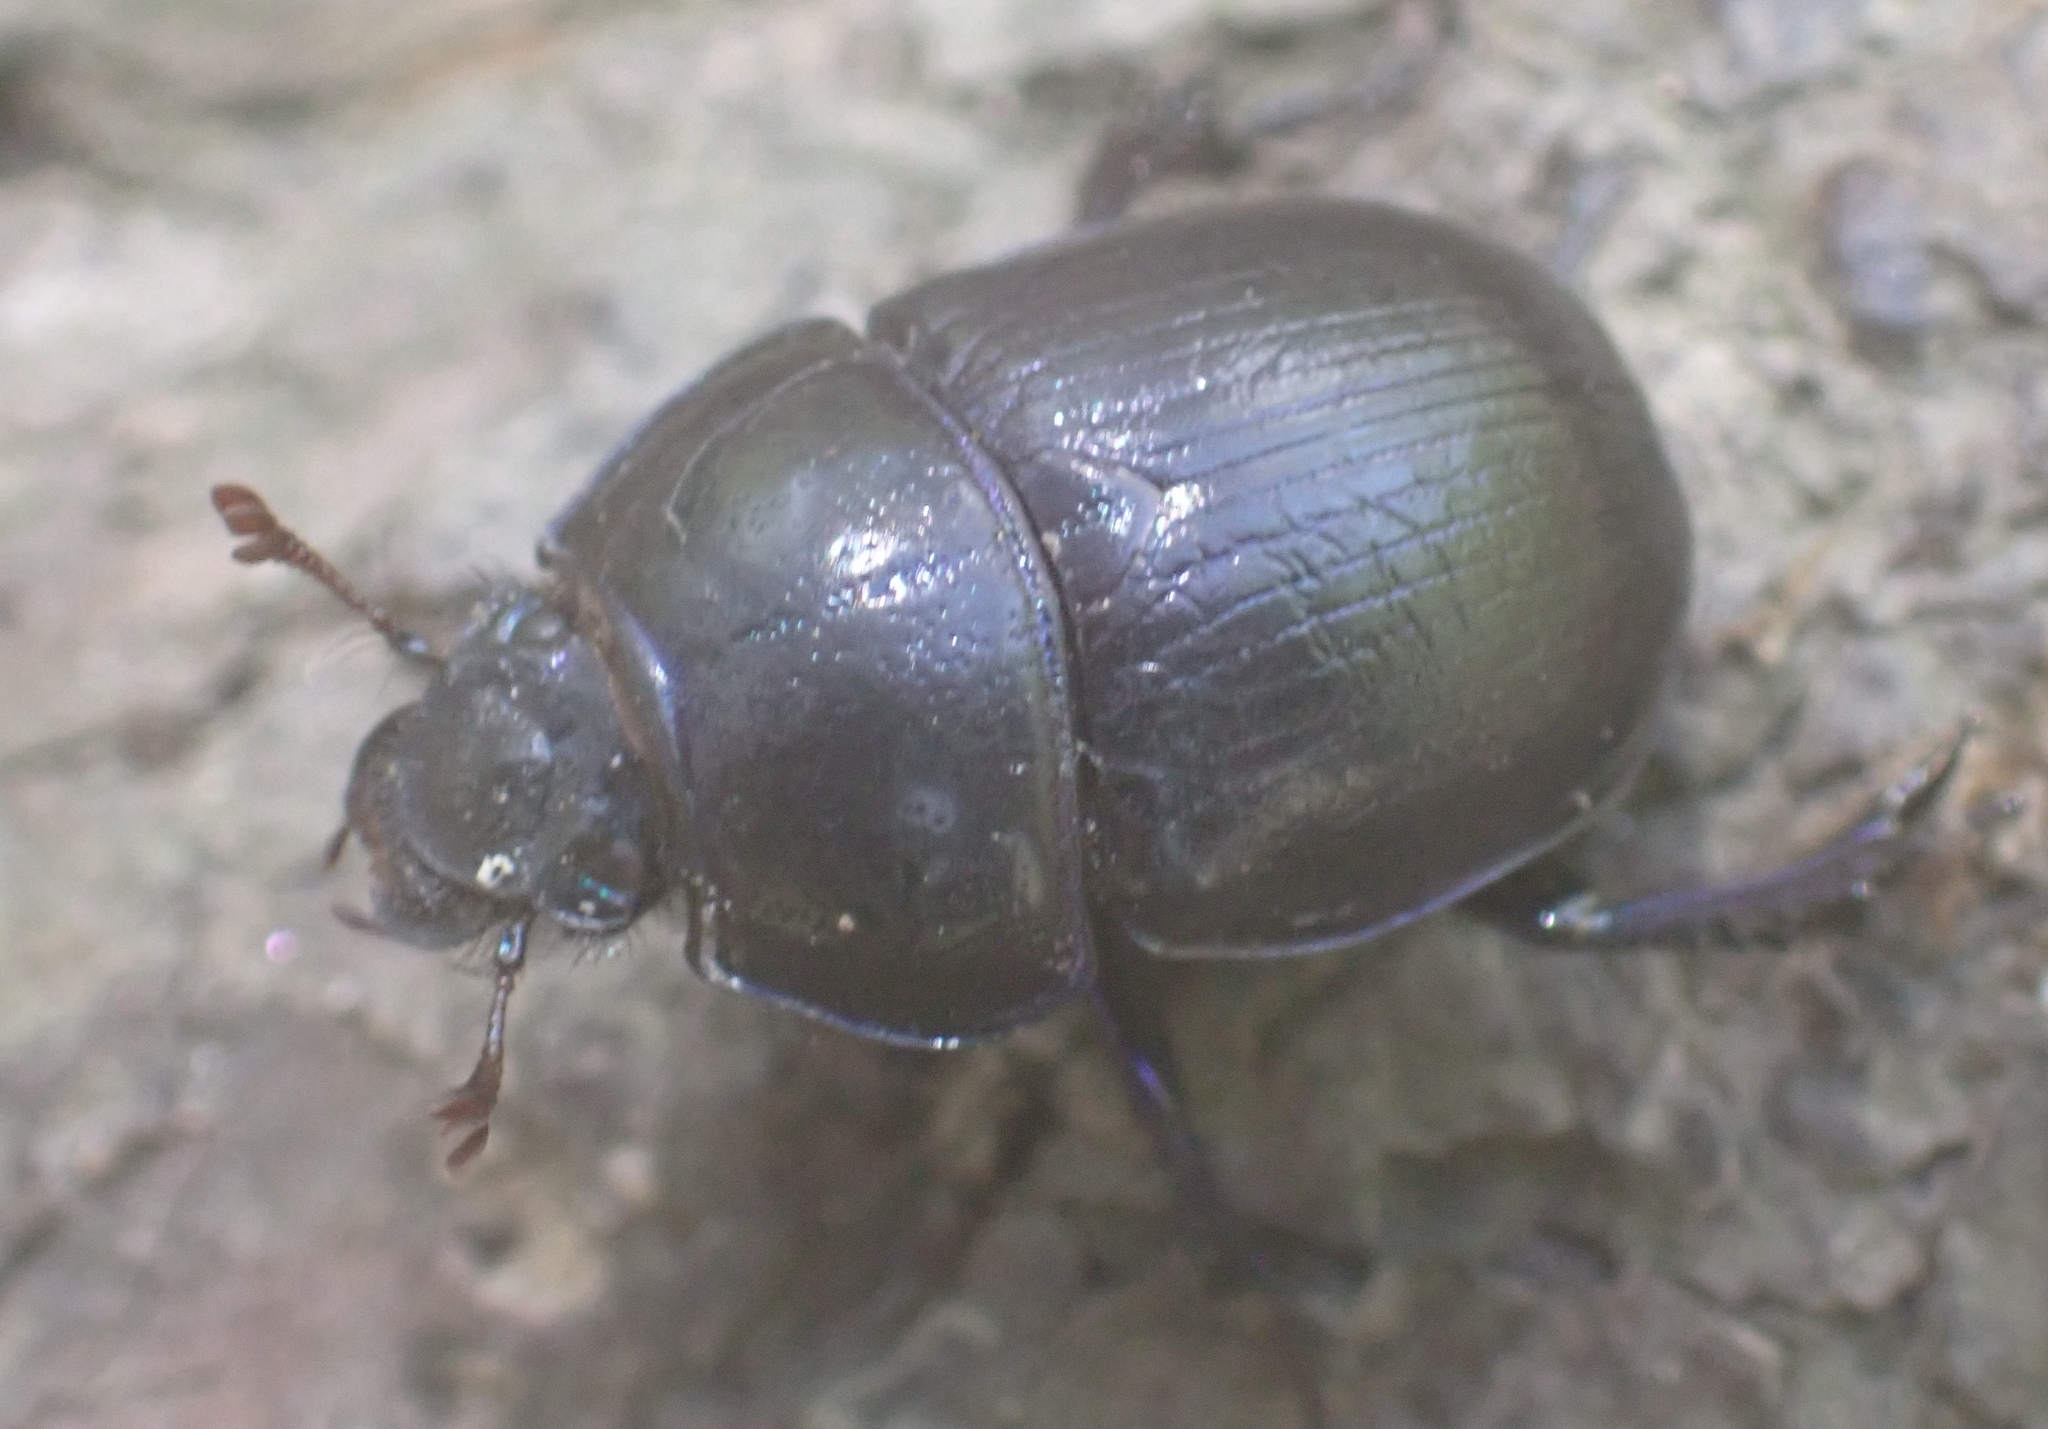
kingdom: Animalia
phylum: Arthropoda
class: Insecta
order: Coleoptera
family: Geotrupidae
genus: Anoplotrupes
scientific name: Anoplotrupes stercorosus
